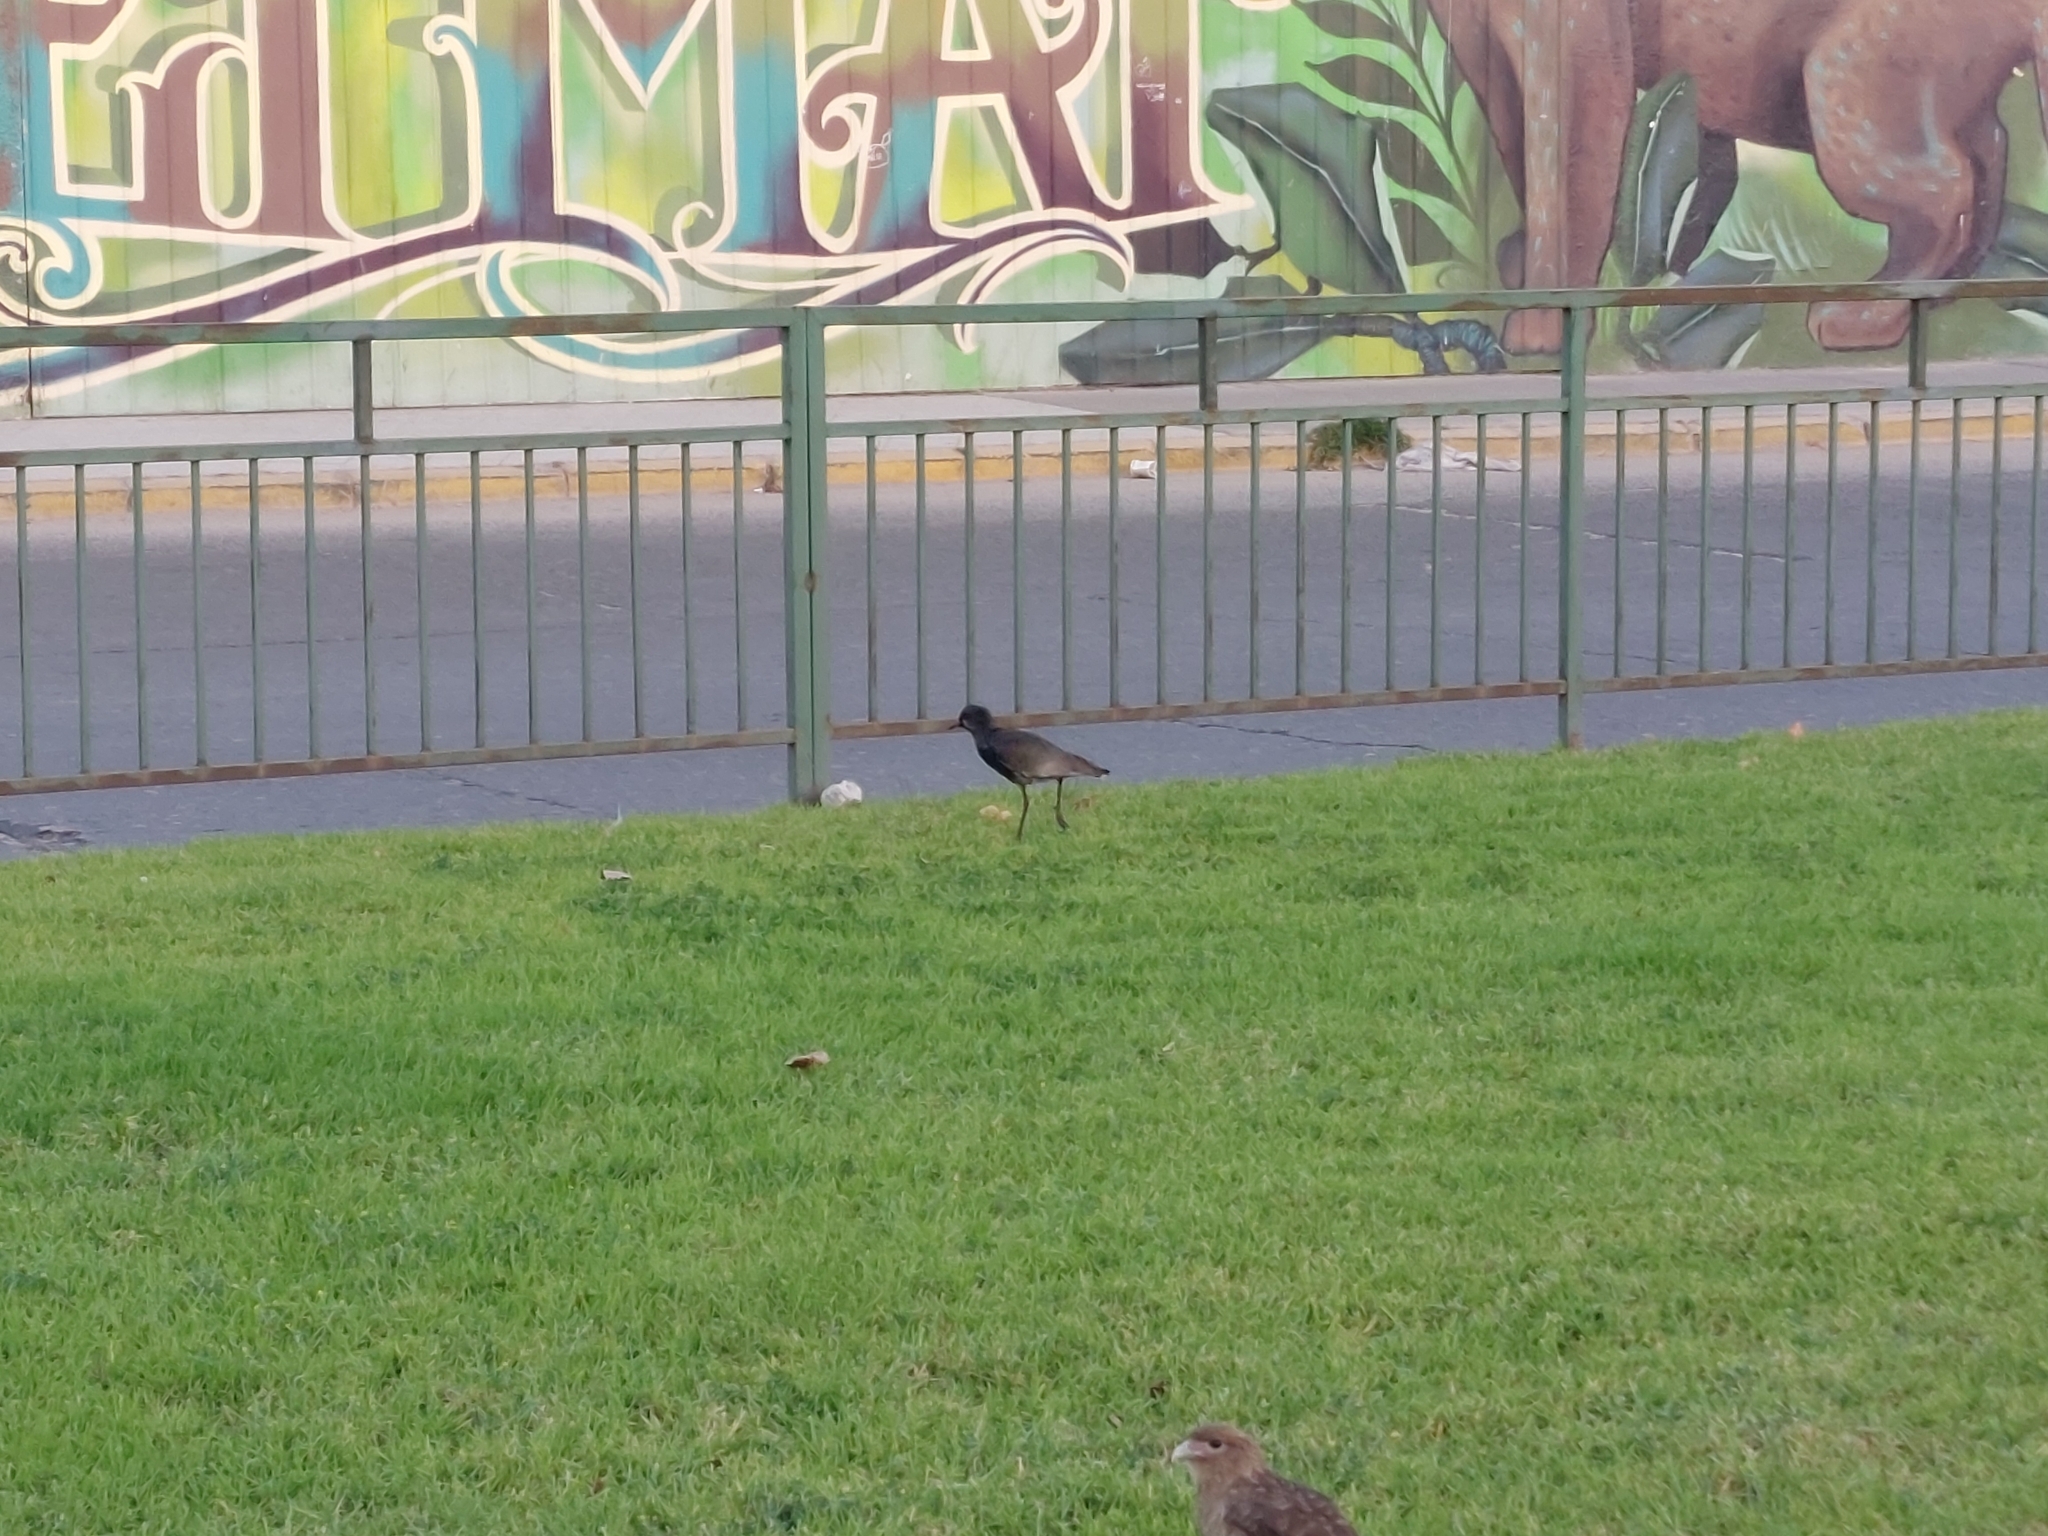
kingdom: Animalia
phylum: Chordata
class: Aves
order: Charadriiformes
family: Charadriidae
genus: Vanellus
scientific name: Vanellus chilensis
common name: Southern lapwing
